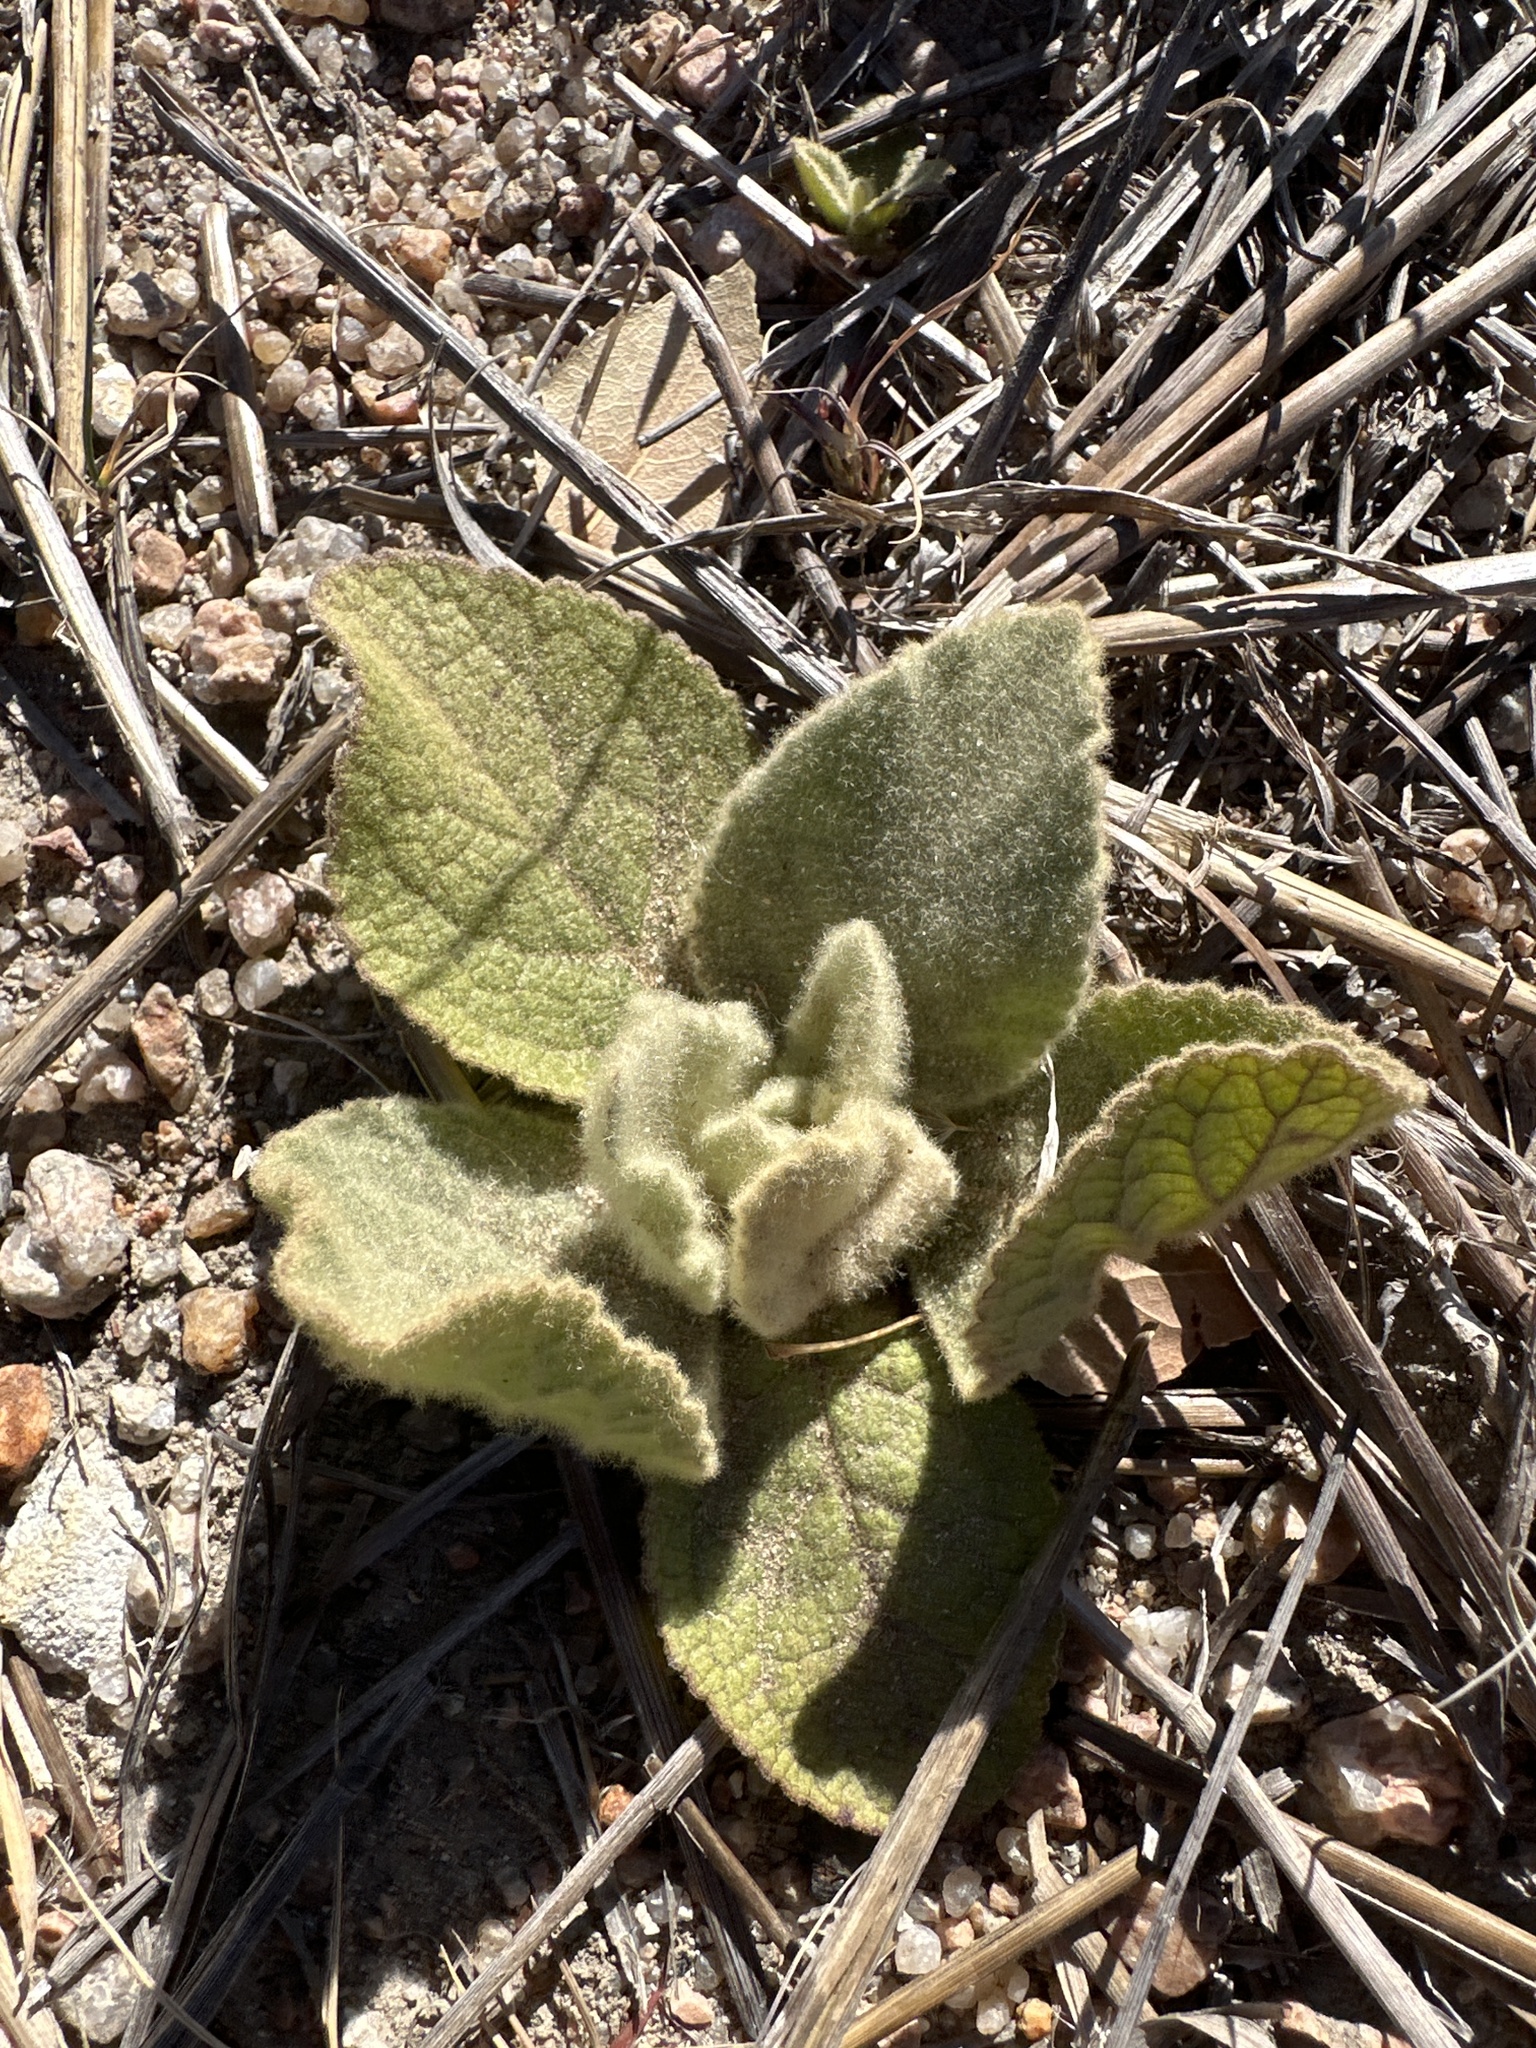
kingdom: Plantae
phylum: Tracheophyta
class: Magnoliopsida
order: Lamiales
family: Scrophulariaceae
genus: Verbascum
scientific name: Verbascum thapsus
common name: Common mullein
